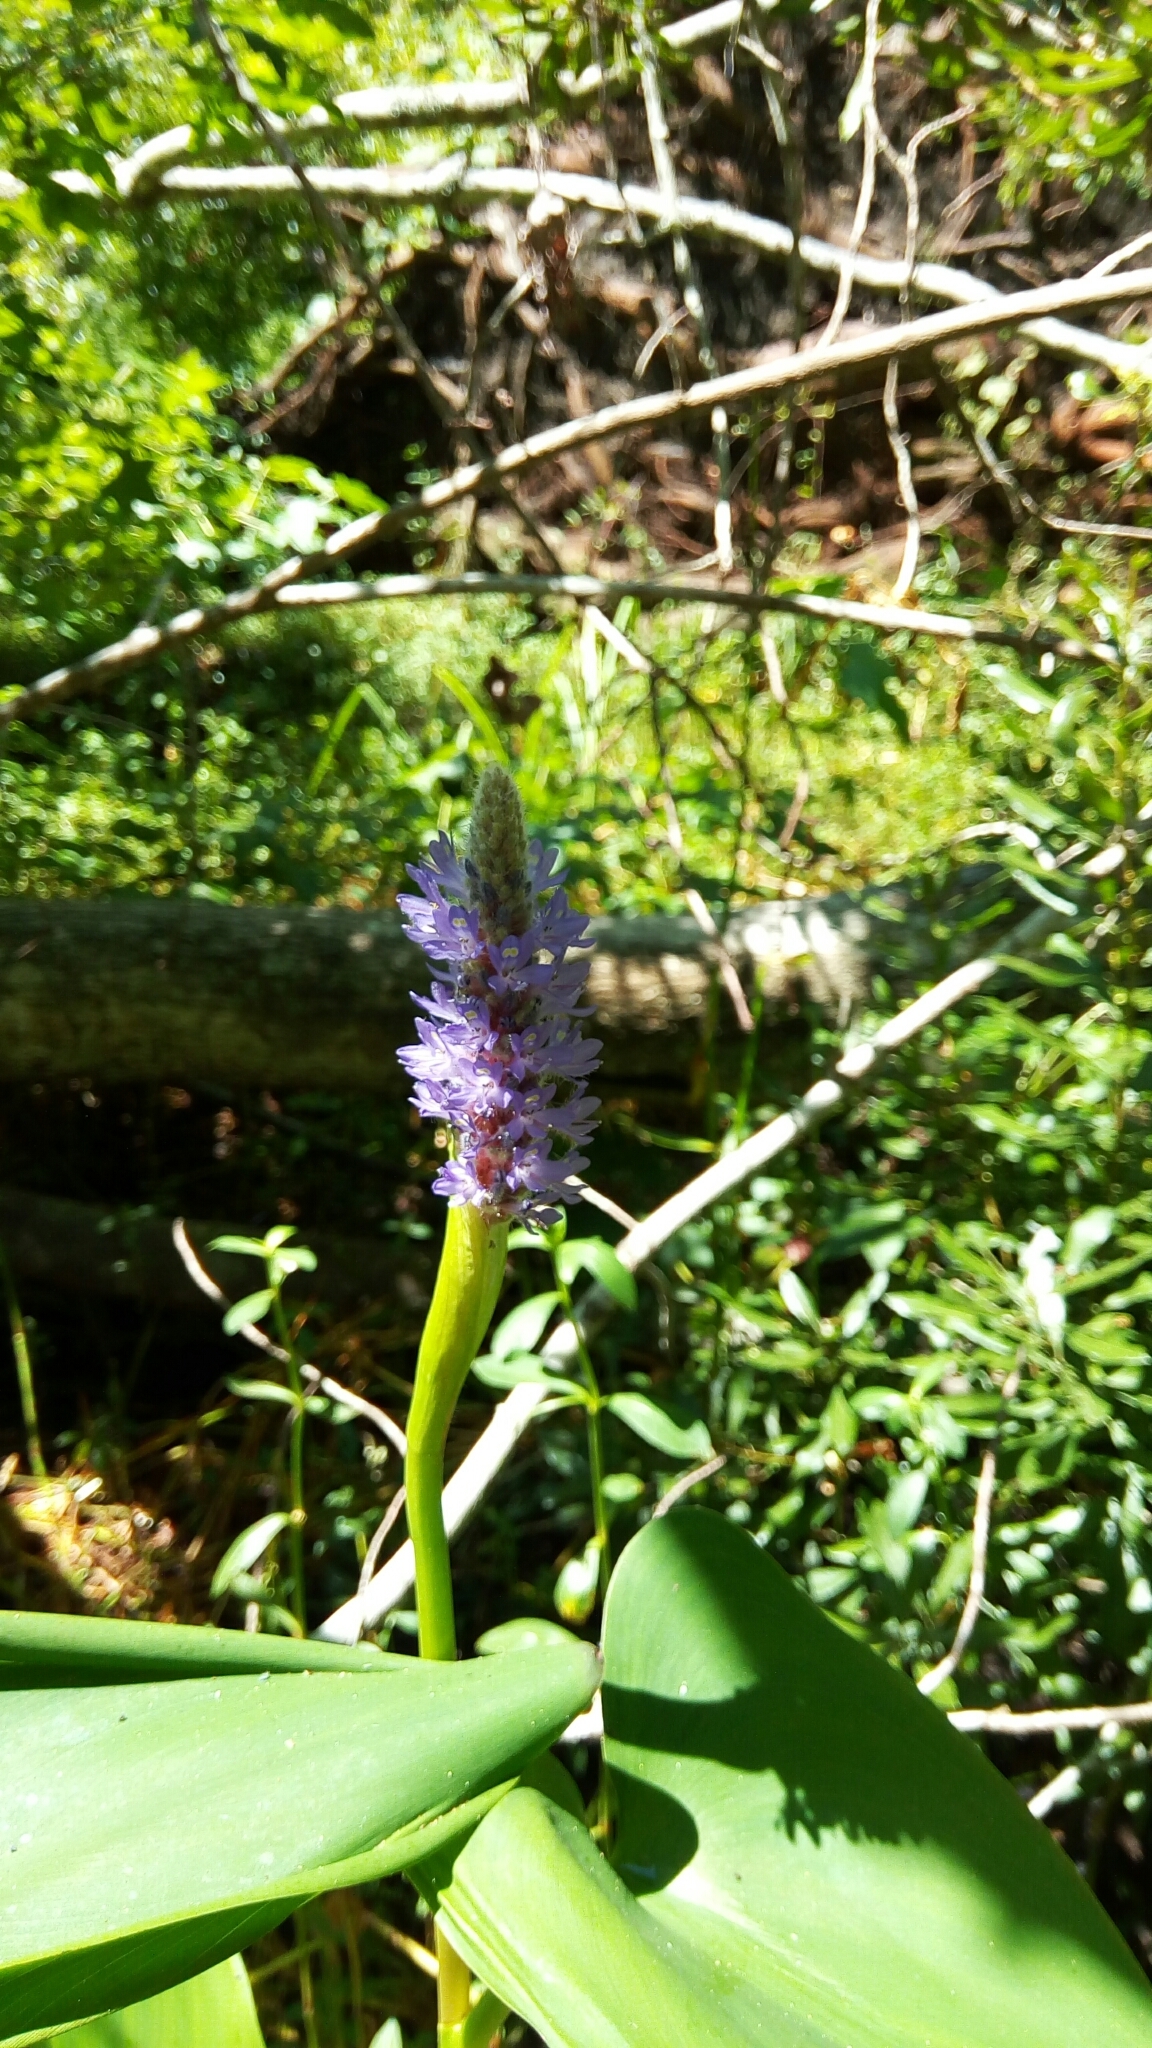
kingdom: Plantae
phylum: Tracheophyta
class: Liliopsida
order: Commelinales
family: Pontederiaceae
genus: Pontederia
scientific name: Pontederia cordata
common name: Pickerelweed
